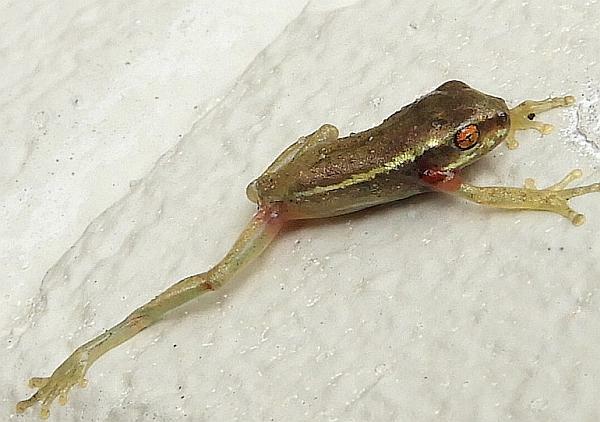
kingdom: Animalia
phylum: Chordata
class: Amphibia
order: Anura
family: Hylidae
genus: Osteopilus
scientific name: Osteopilus septentrionalis
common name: Cuban treefrog
